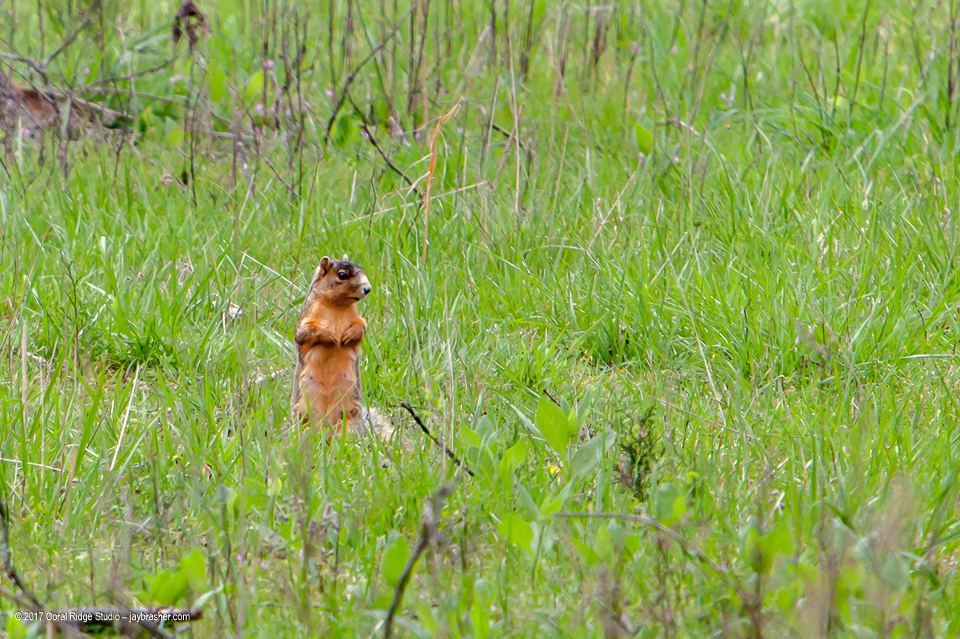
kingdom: Animalia
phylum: Chordata
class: Mammalia
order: Rodentia
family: Sciuridae
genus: Sciurus
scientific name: Sciurus niger
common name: Fox squirrel
